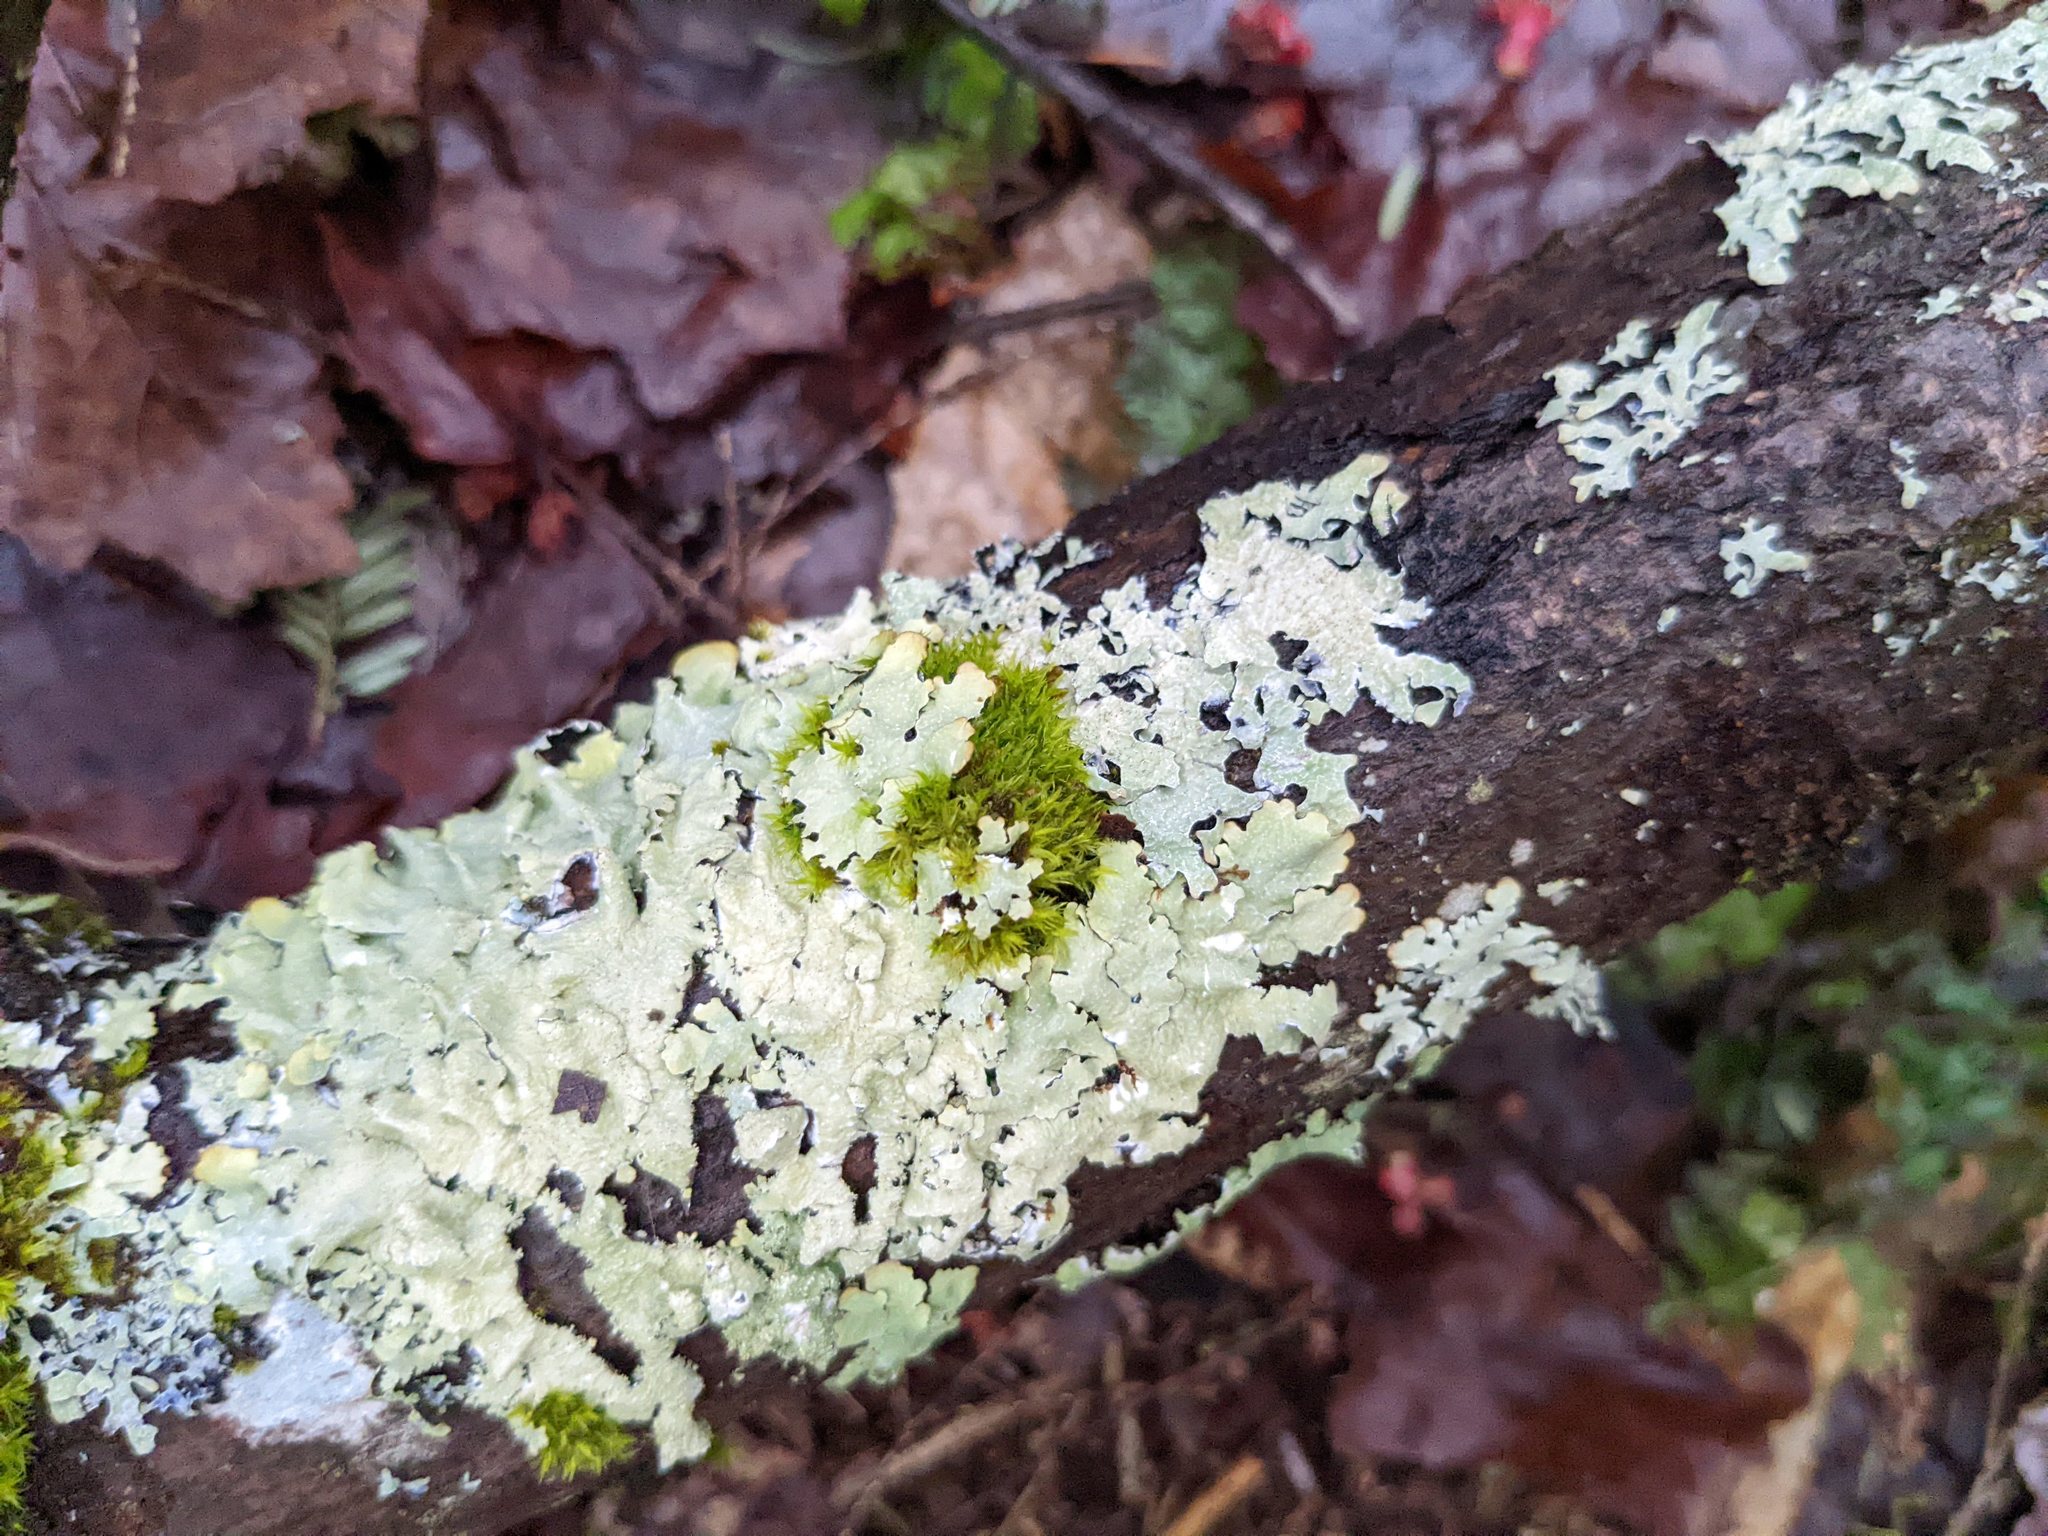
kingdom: Plantae
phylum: Bryophyta
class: Bryopsida
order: Orthotrichales
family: Orthotrichaceae
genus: Ulota
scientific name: Ulota crispa
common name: Crisped pincushion moss
